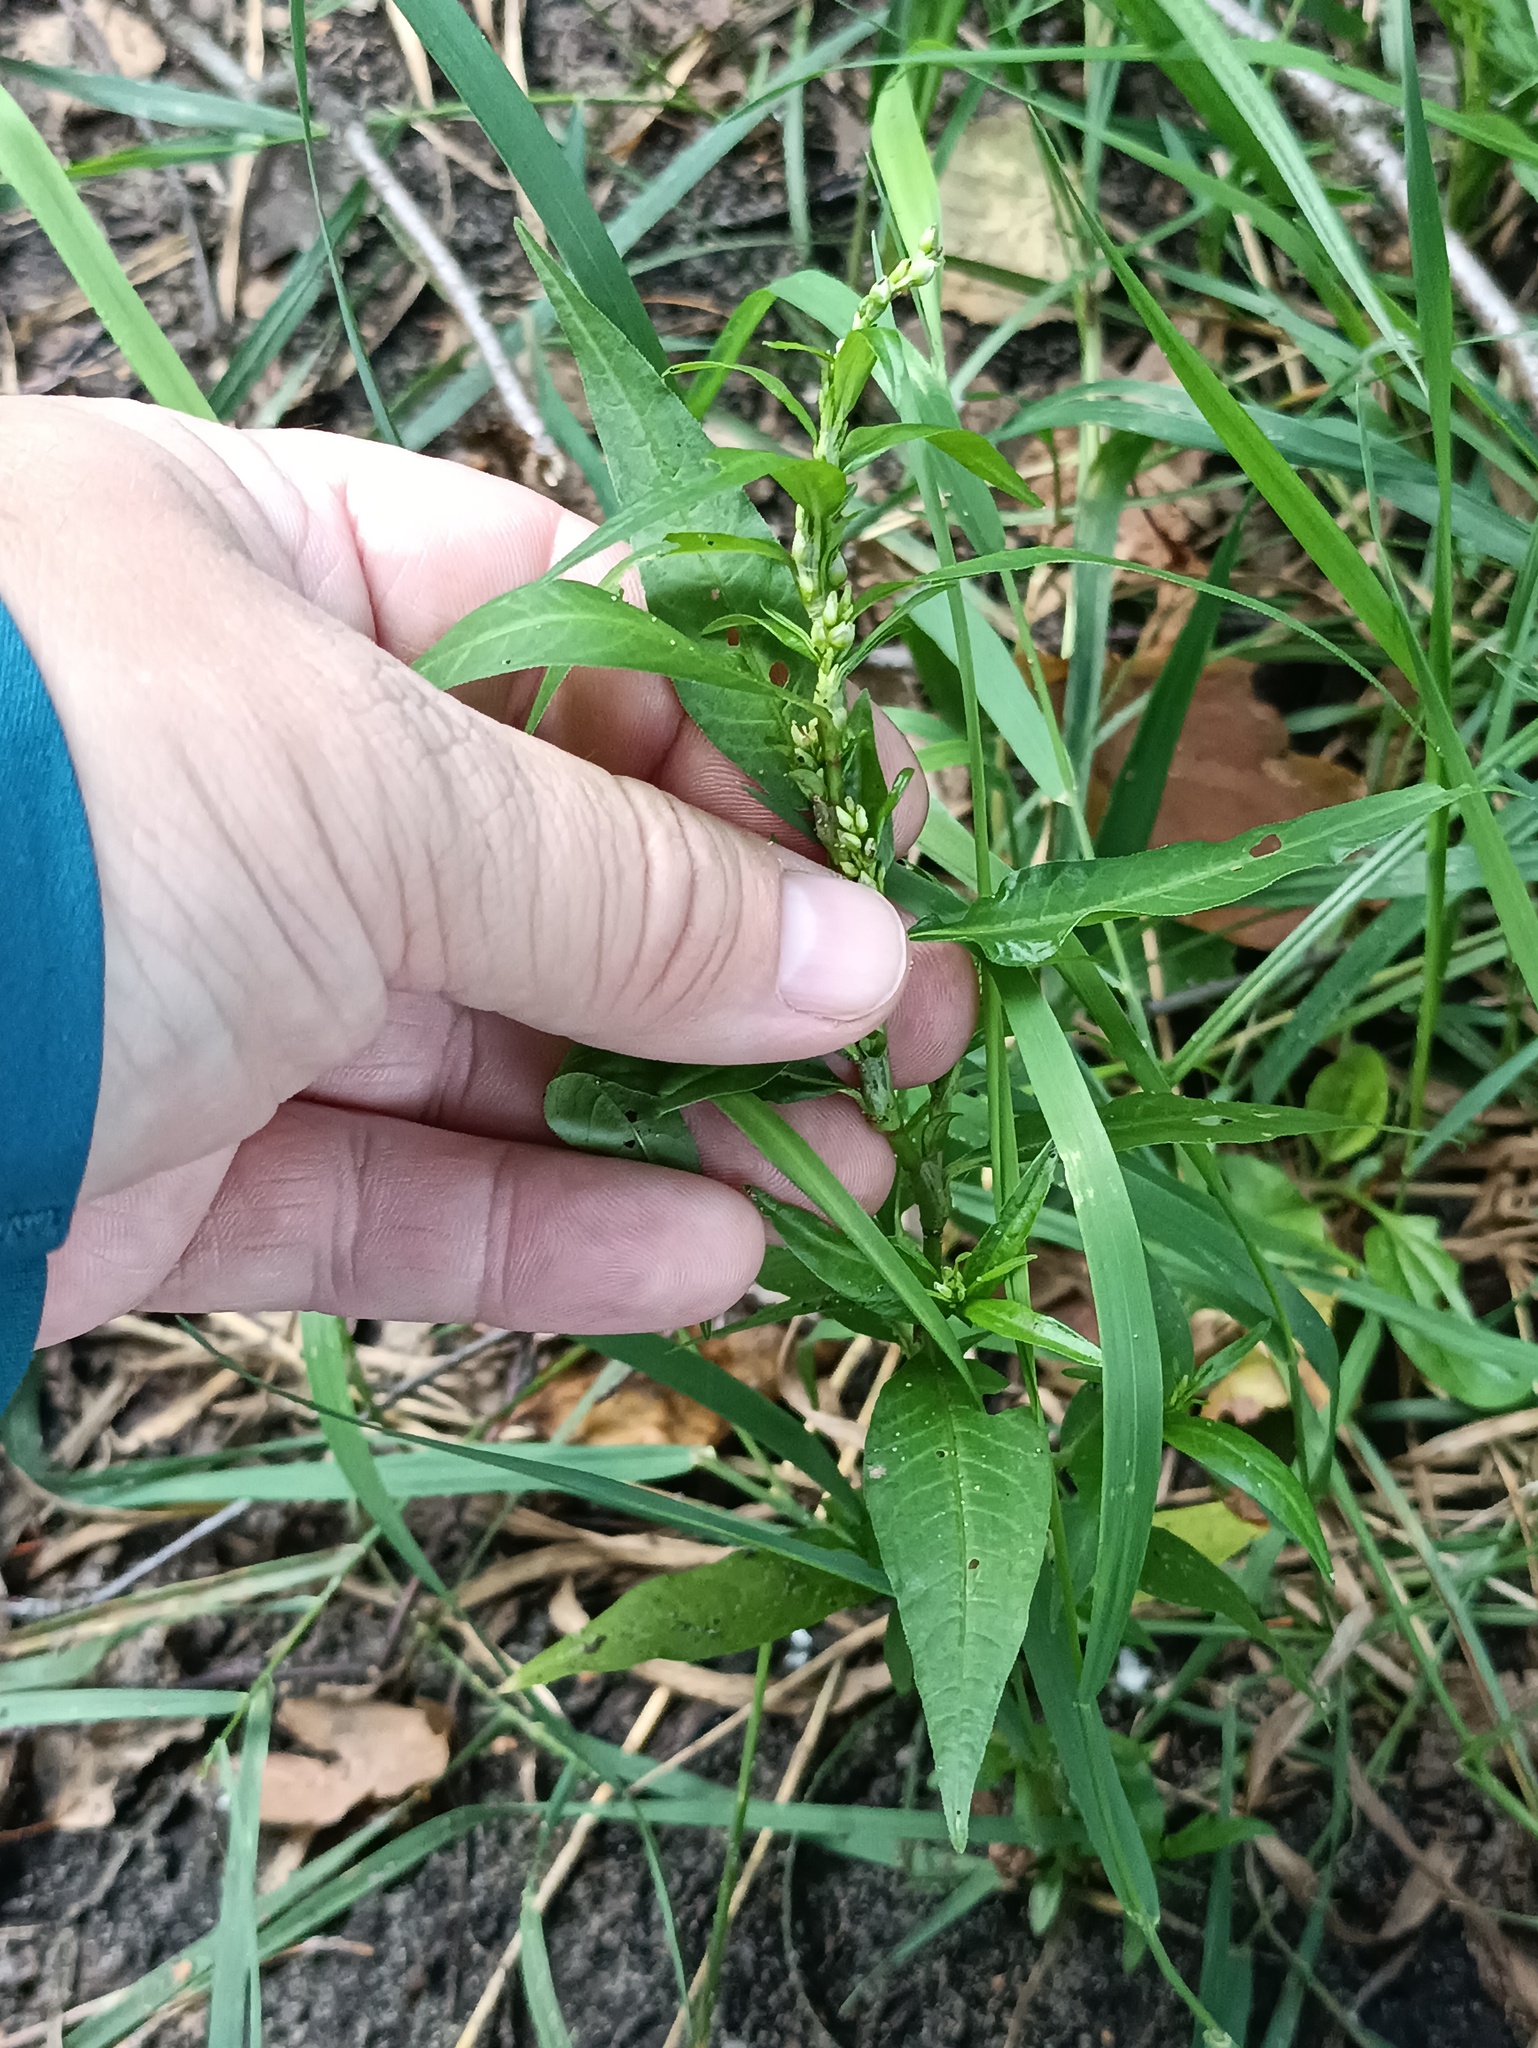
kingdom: Plantae
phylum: Tracheophyta
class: Magnoliopsida
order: Caryophyllales
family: Polygonaceae
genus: Persicaria
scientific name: Persicaria hydropiper
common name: Water-pepper
